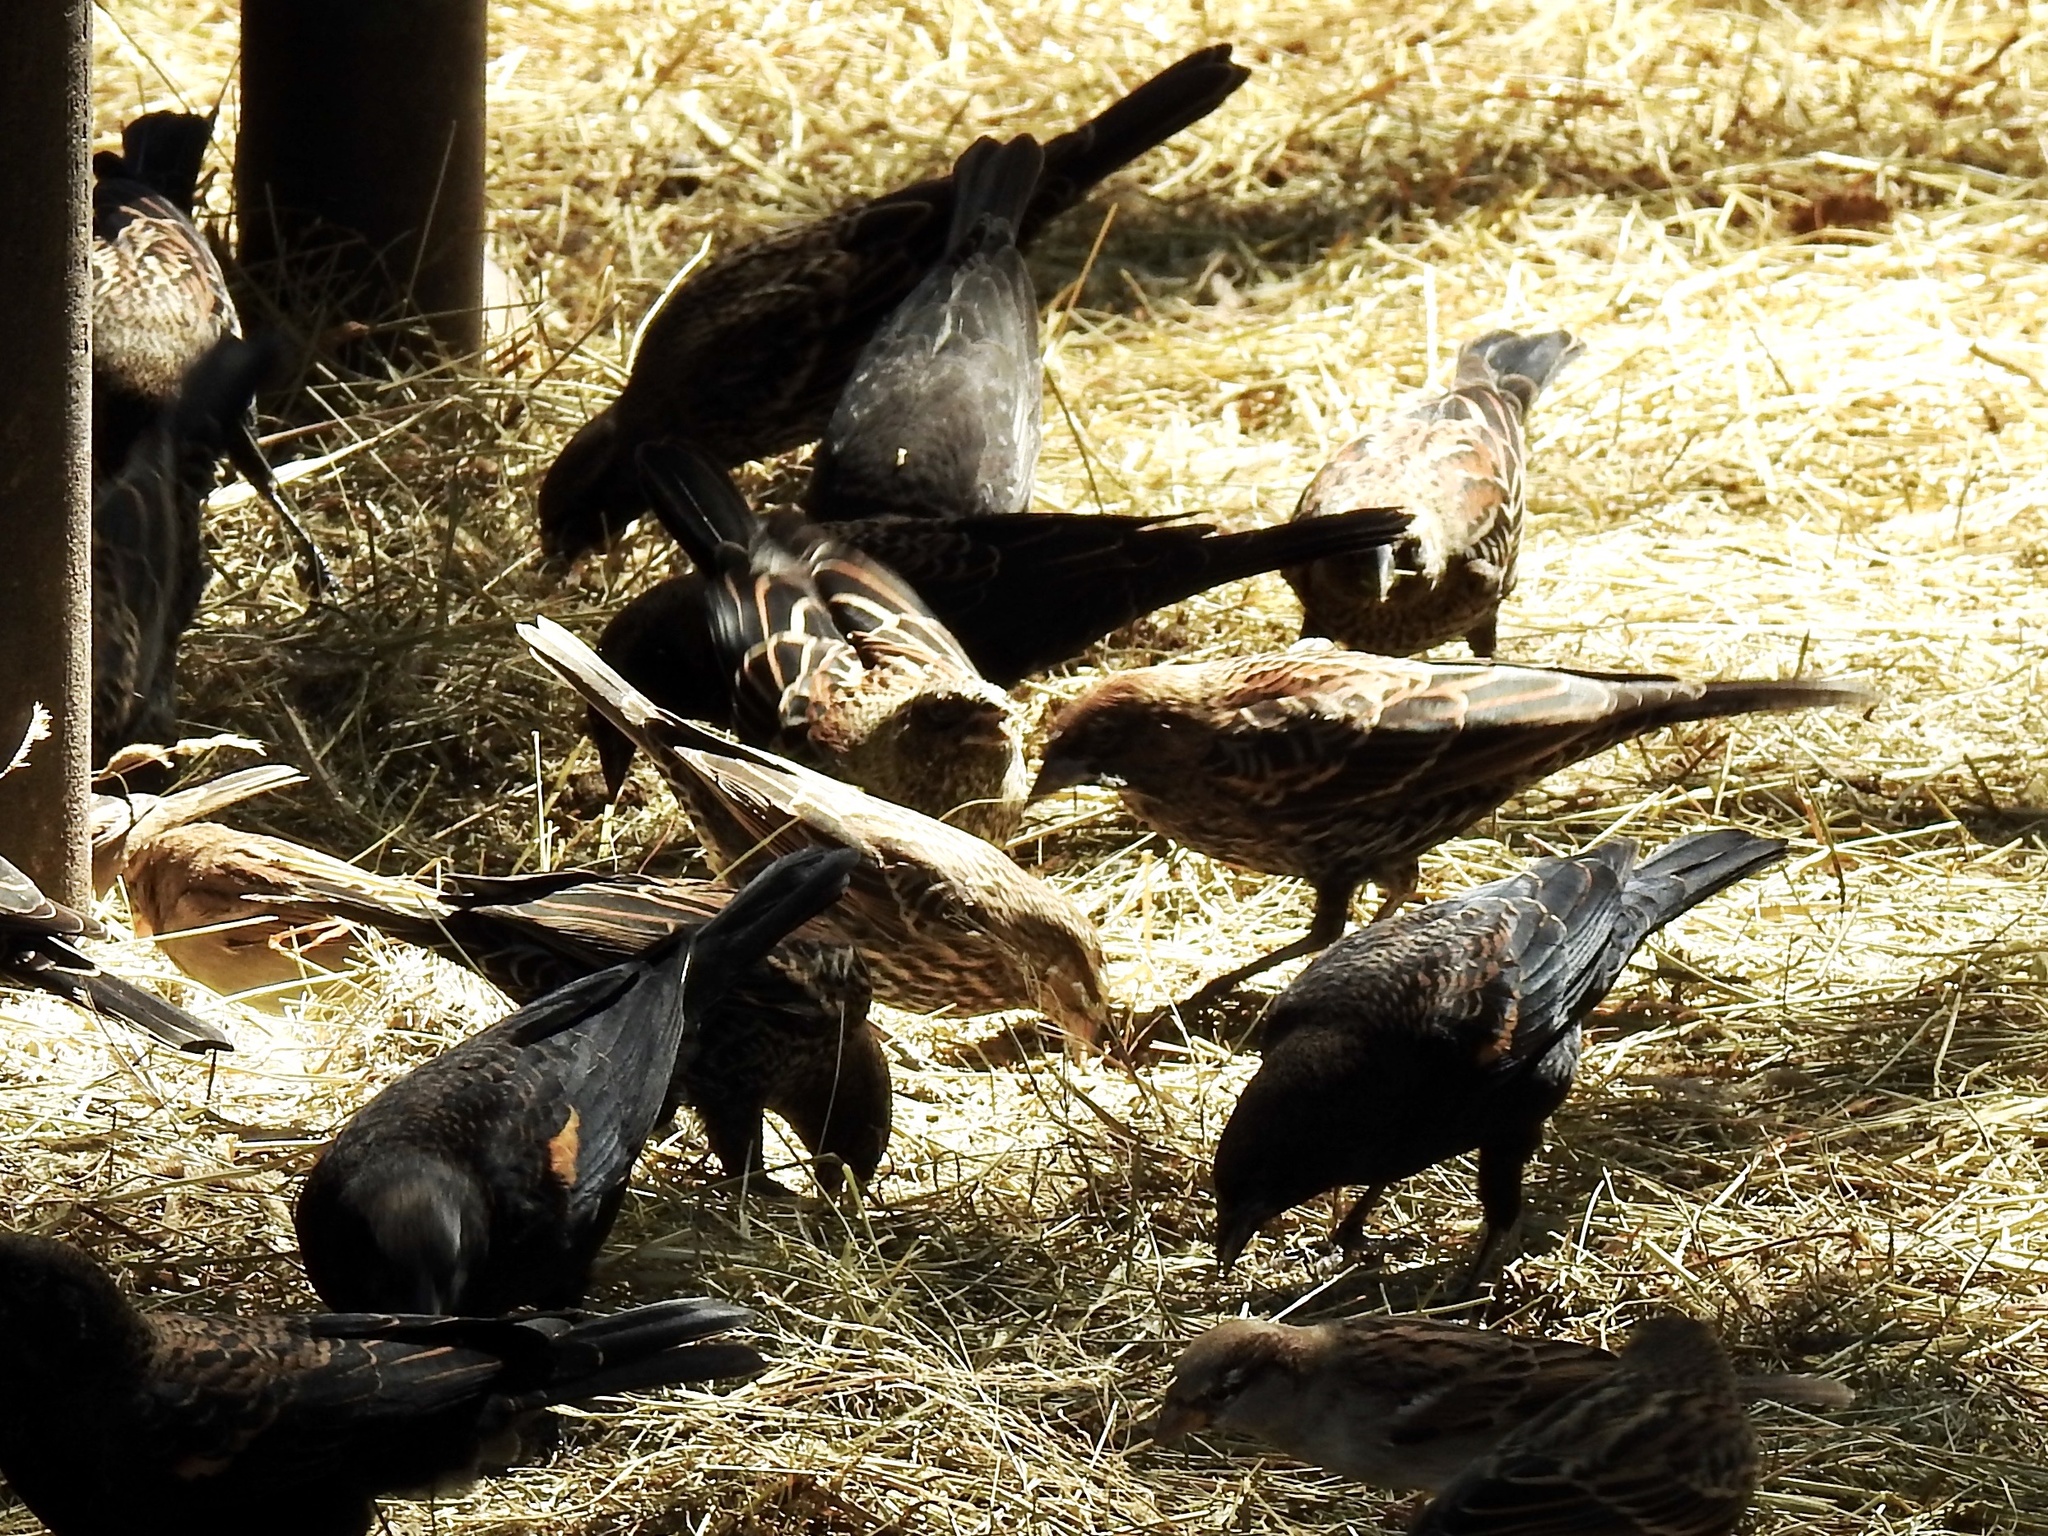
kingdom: Animalia
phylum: Chordata
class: Aves
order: Passeriformes
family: Icteridae
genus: Agelaius
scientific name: Agelaius phoeniceus
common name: Red-winged blackbird
